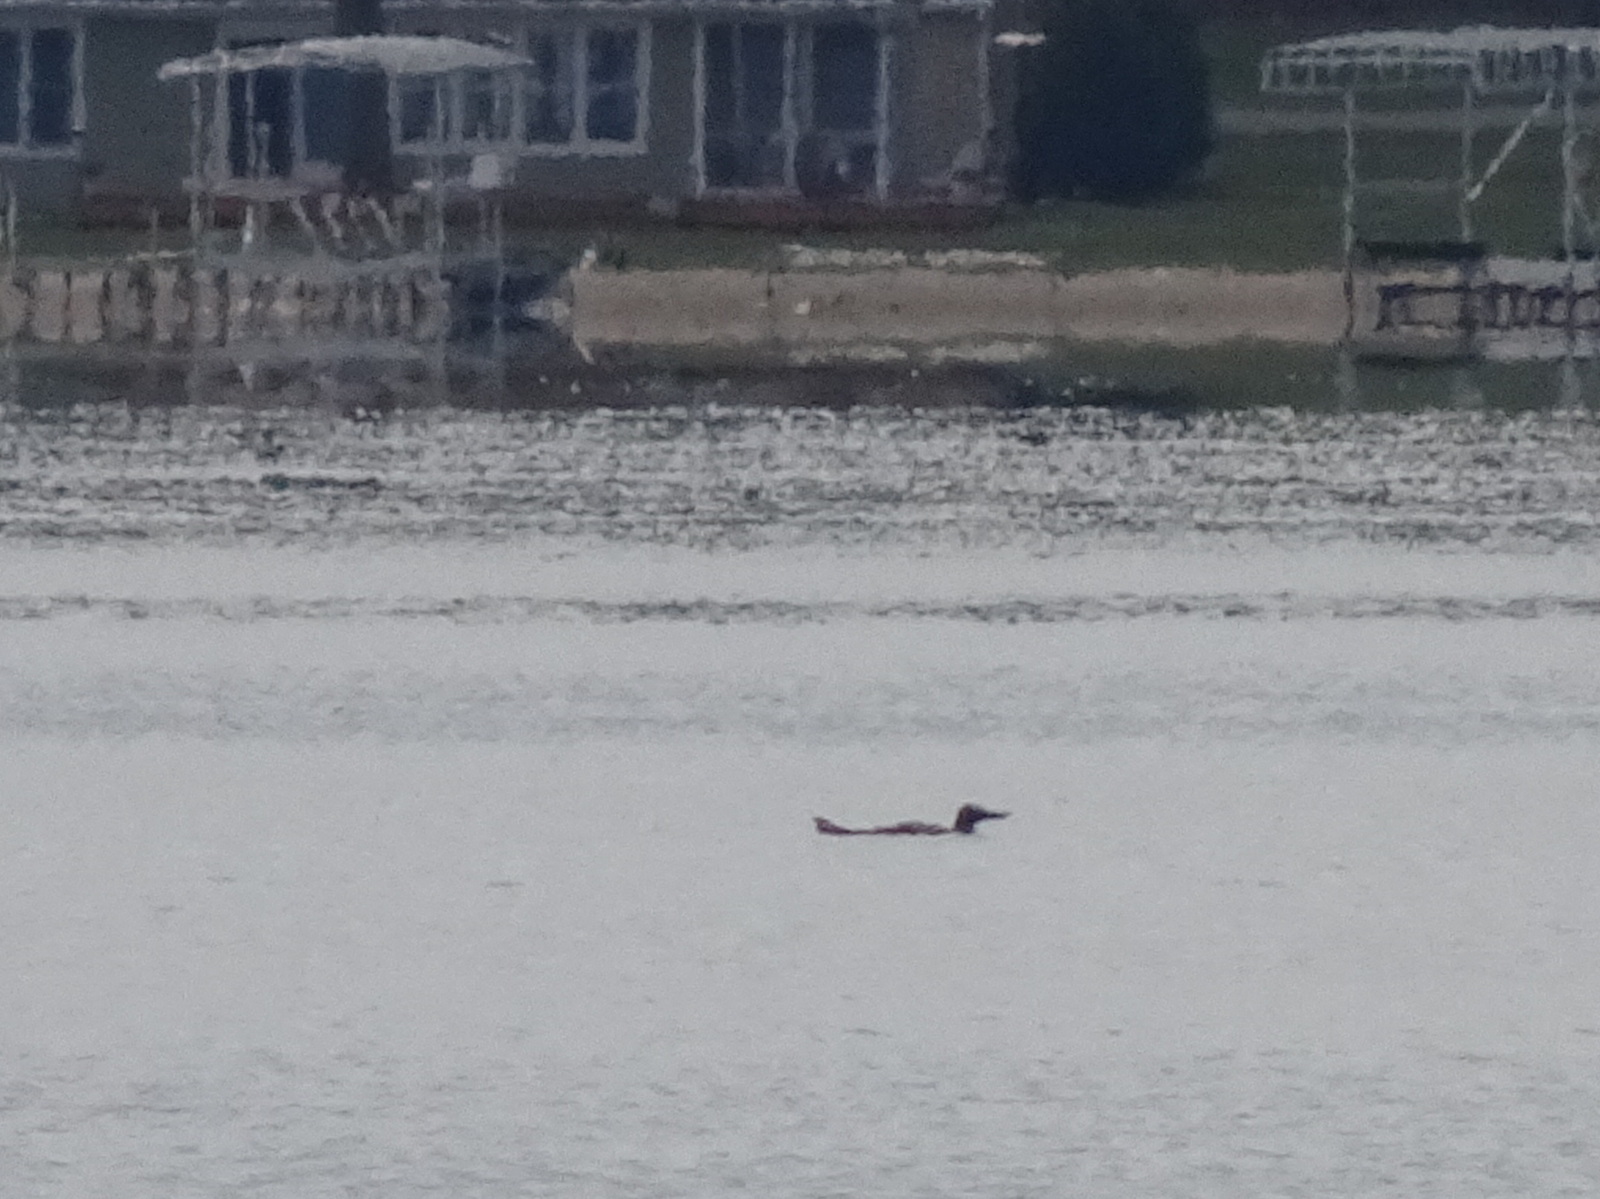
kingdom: Animalia
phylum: Chordata
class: Aves
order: Gaviiformes
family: Gaviidae
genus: Gavia
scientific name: Gavia immer
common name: Common loon
